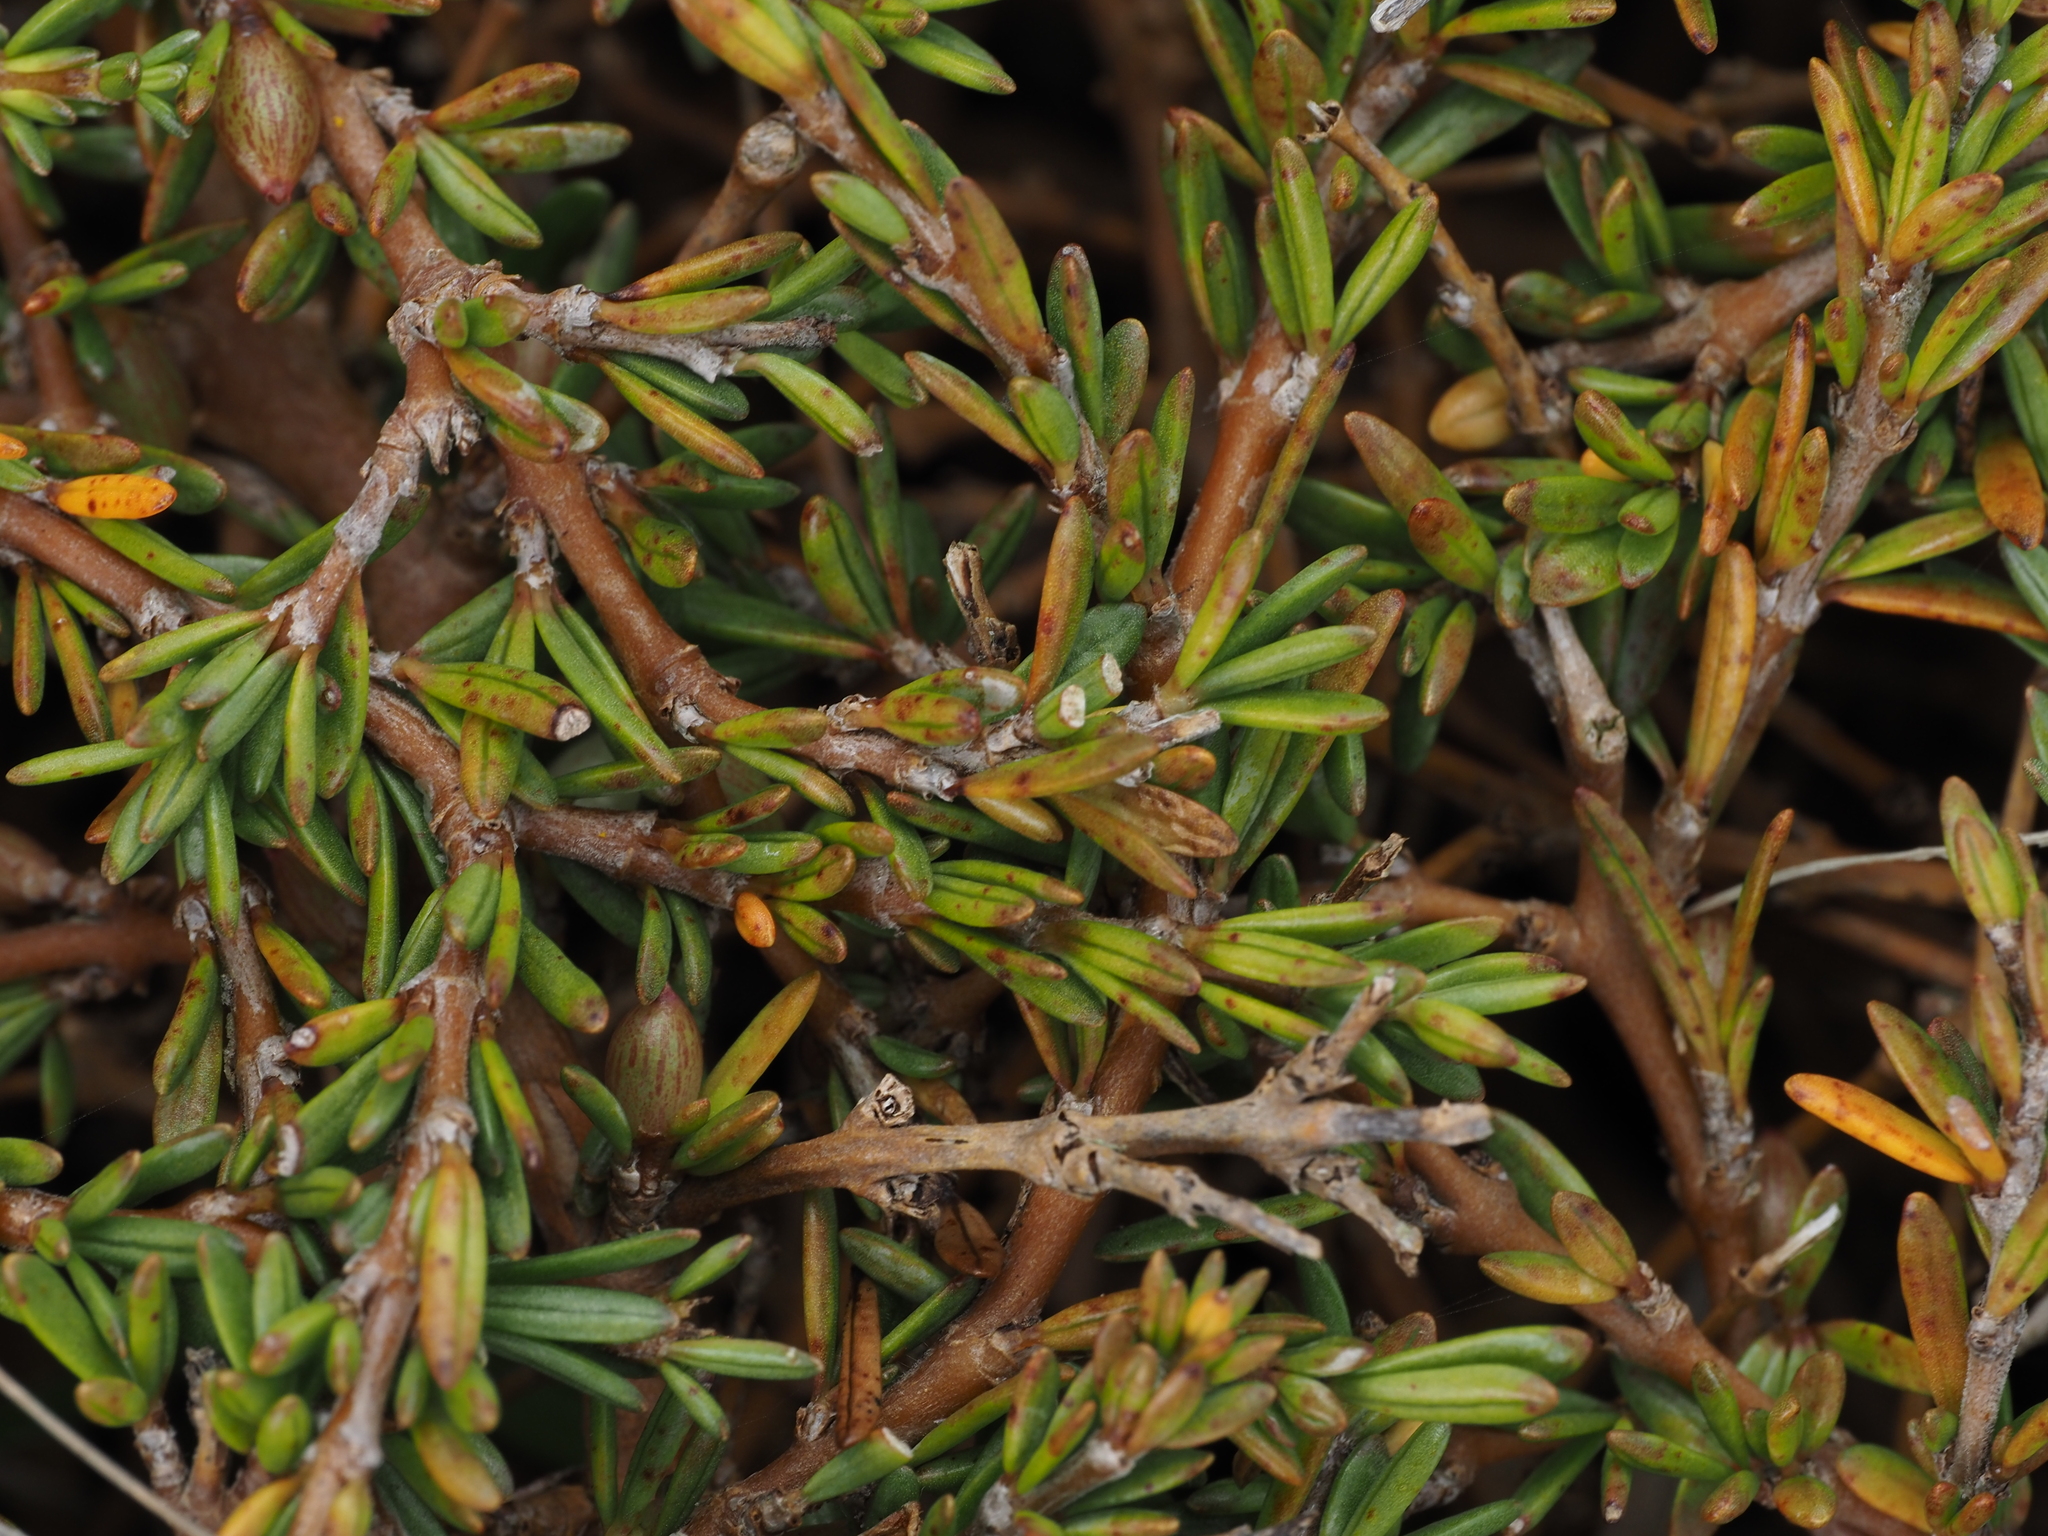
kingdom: Plantae
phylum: Tracheophyta
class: Magnoliopsida
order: Gentianales
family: Rubiaceae
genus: Coprosma
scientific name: Coprosma acerosa
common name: Sand coprosma
